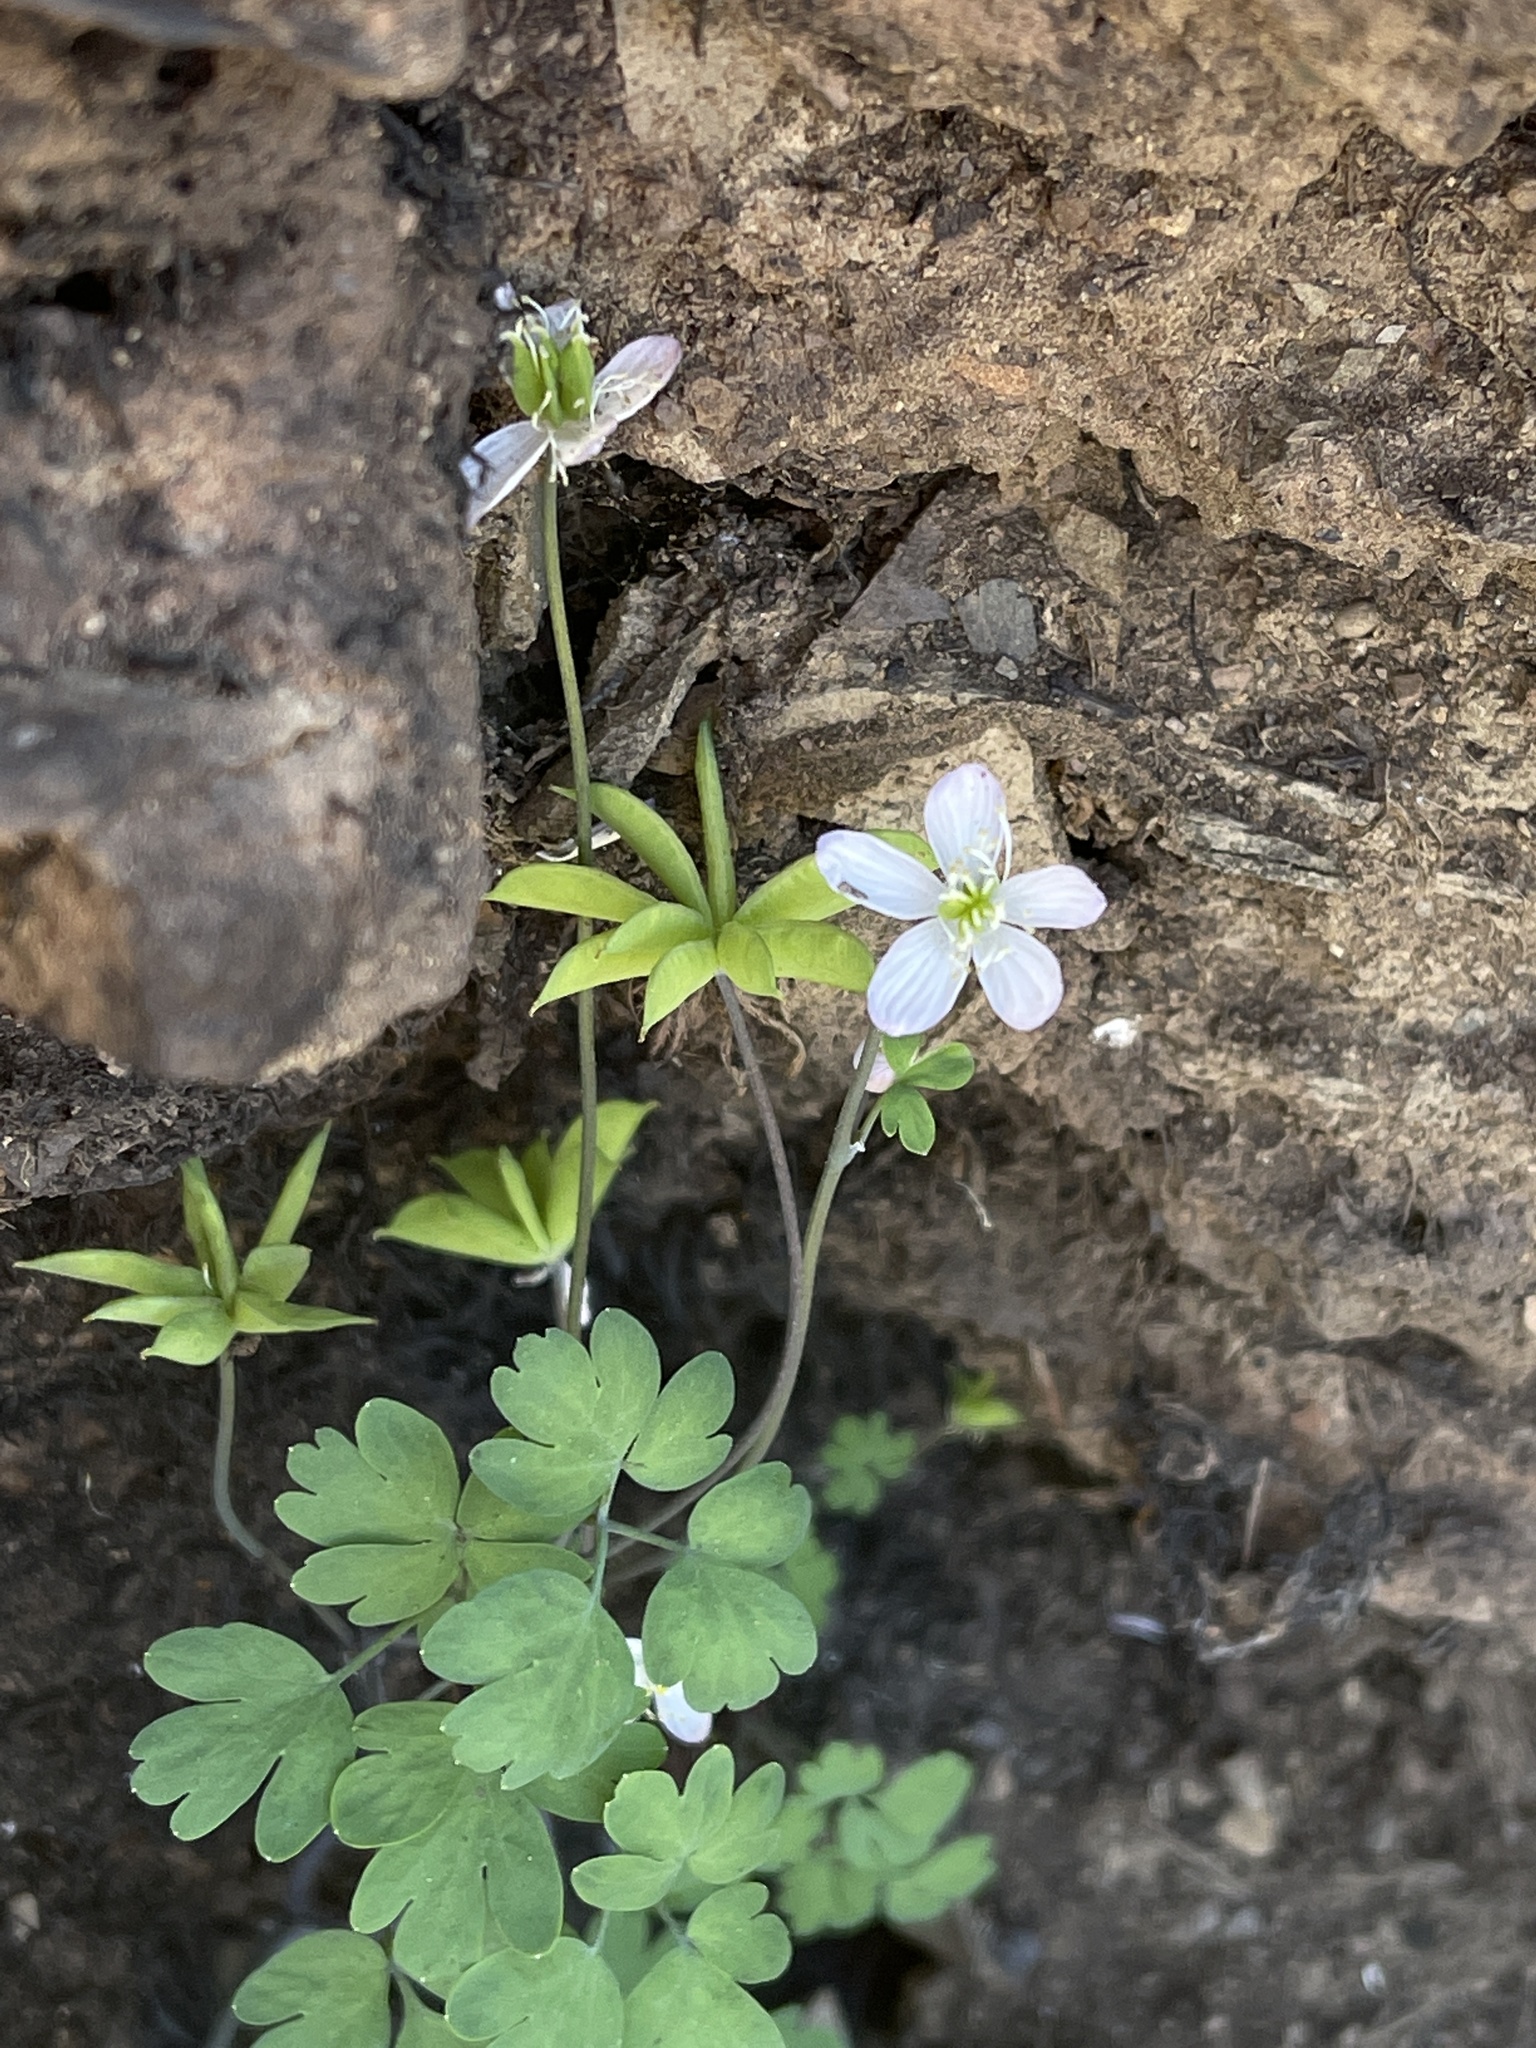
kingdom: Plantae
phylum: Tracheophyta
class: Magnoliopsida
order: Ranunculales
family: Ranunculaceae
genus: Enemion
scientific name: Enemion occidentale
